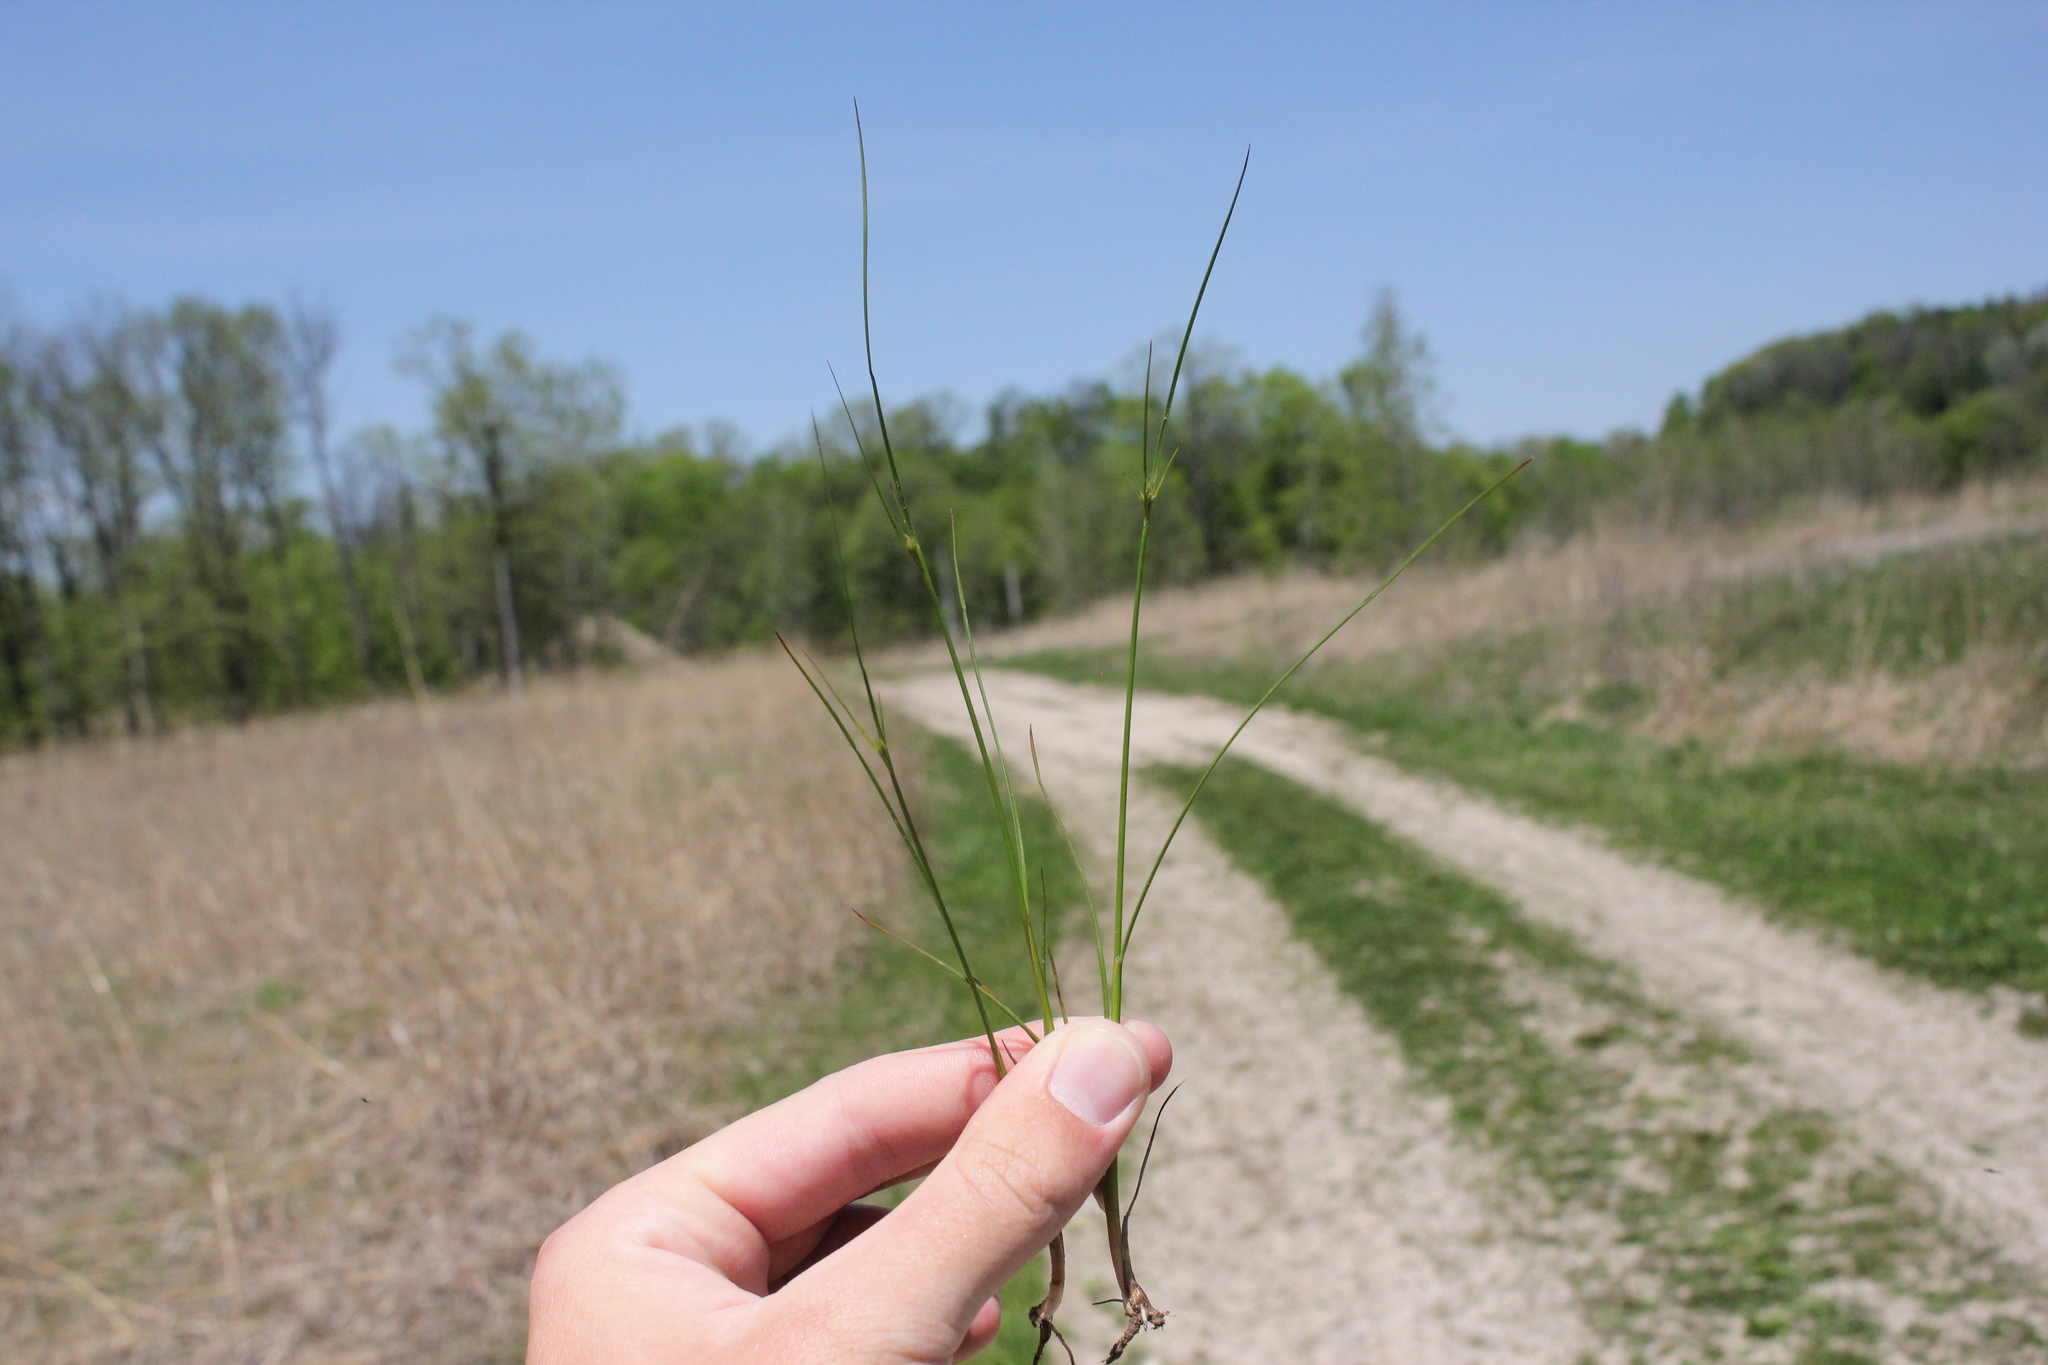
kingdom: Plantae
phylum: Tracheophyta
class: Liliopsida
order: Poales
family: Juncaceae
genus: Juncus
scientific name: Juncus dudleyi
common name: Dudley's rush
